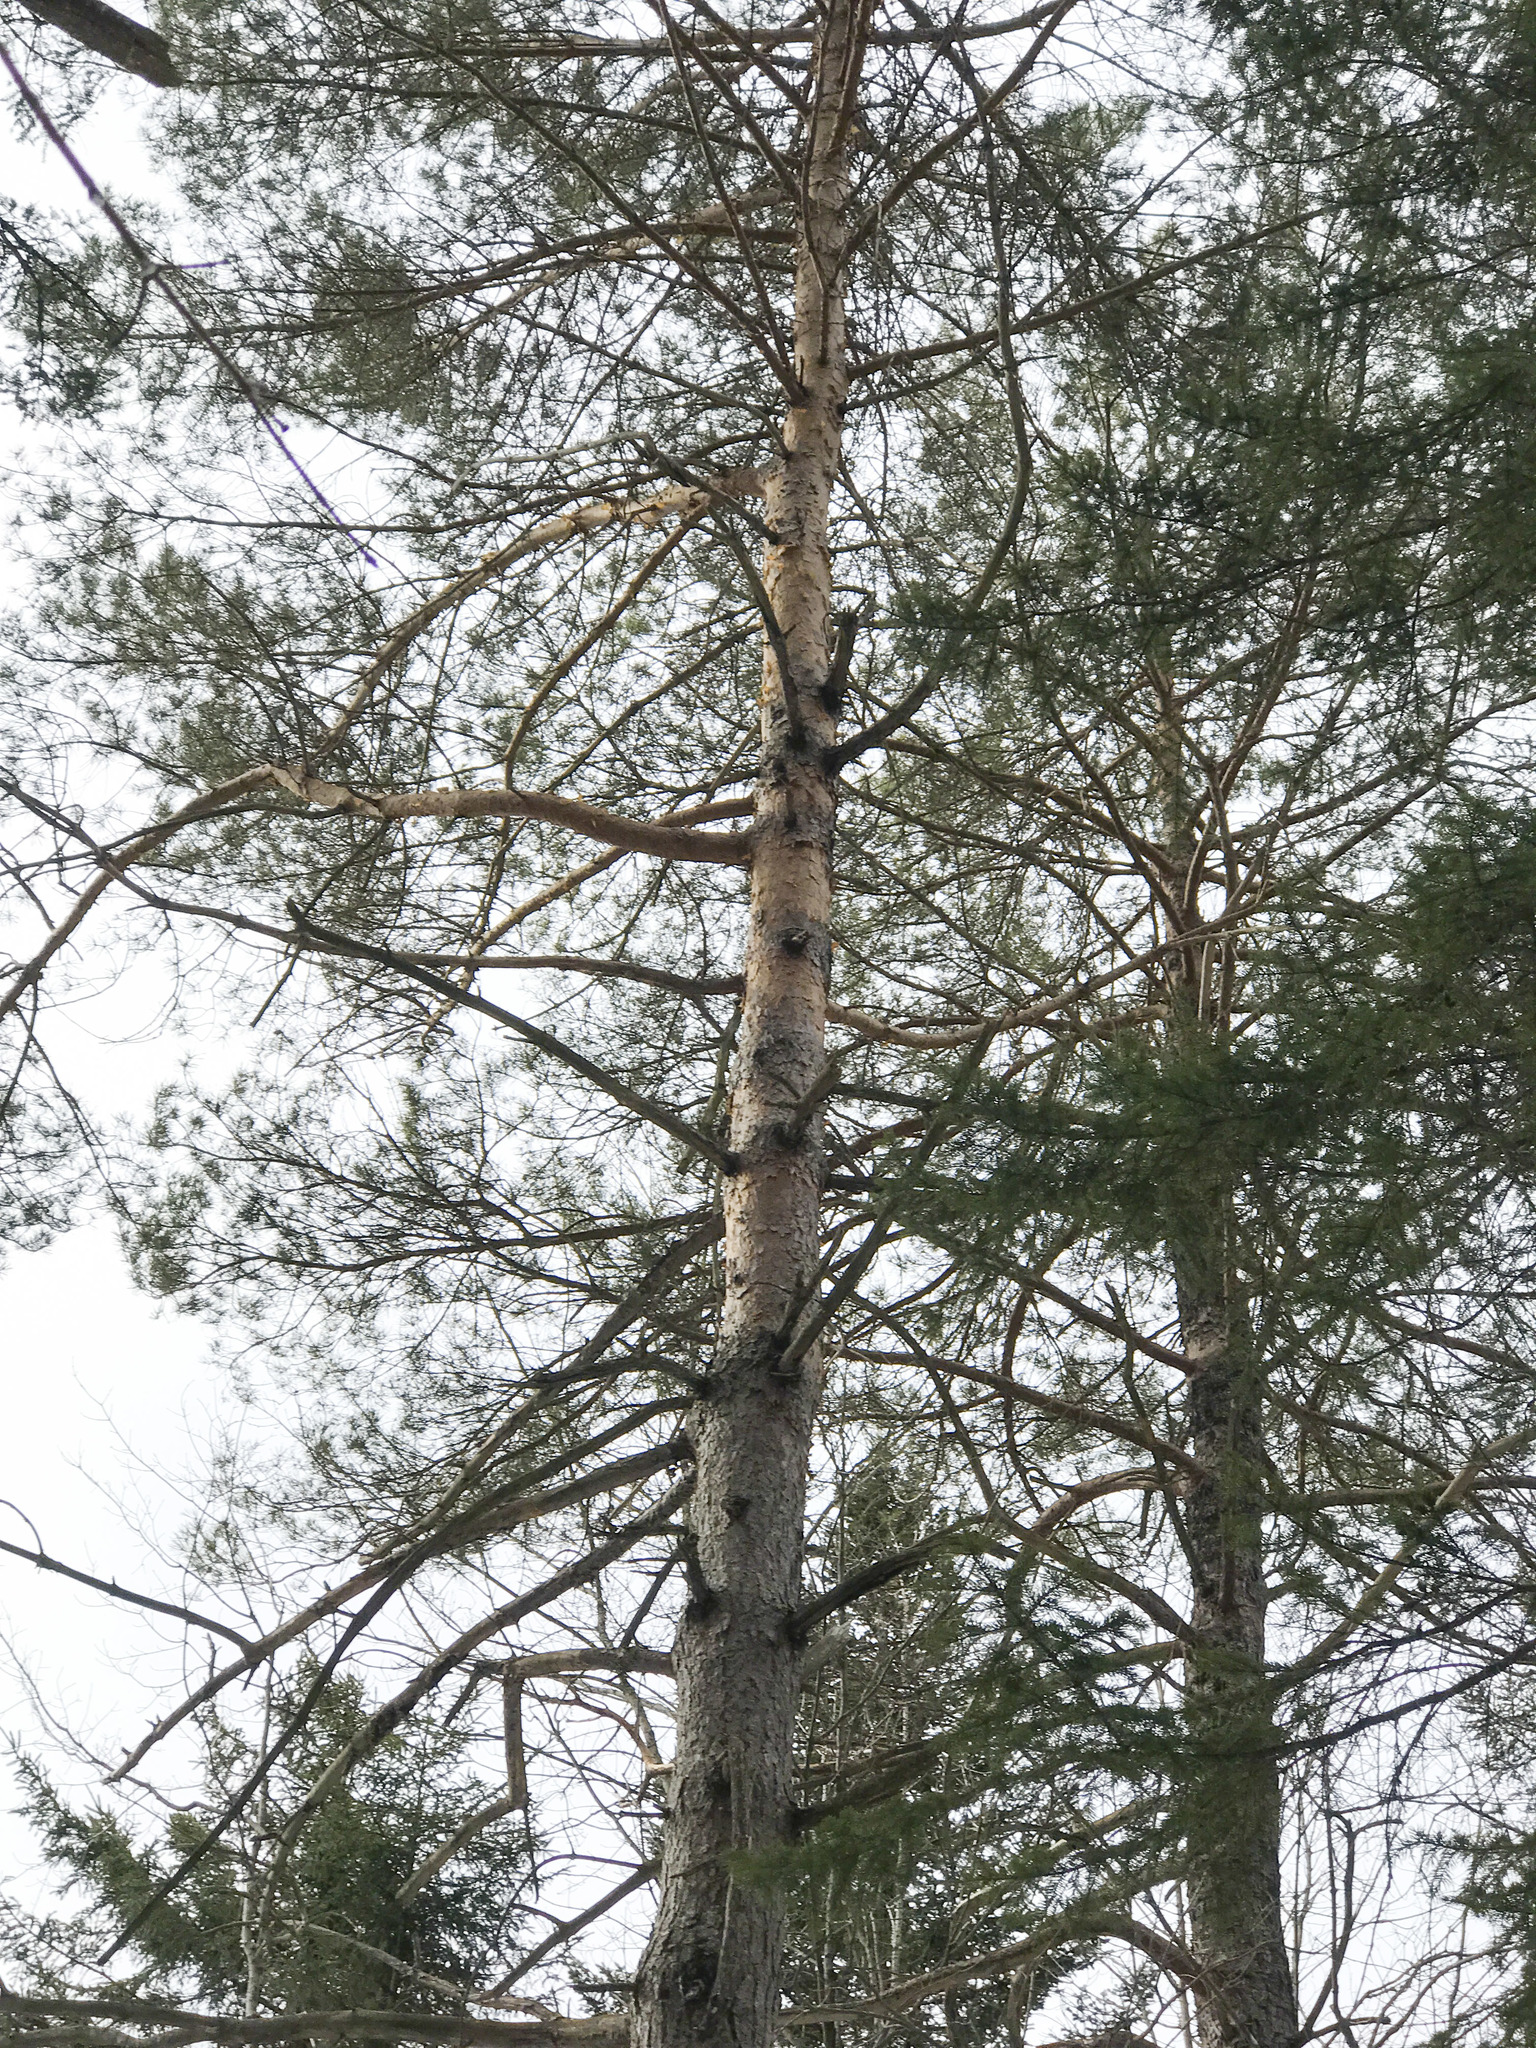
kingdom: Plantae
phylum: Tracheophyta
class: Pinopsida
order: Pinales
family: Pinaceae
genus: Pinus
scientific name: Pinus sylvestris
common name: Scots pine
